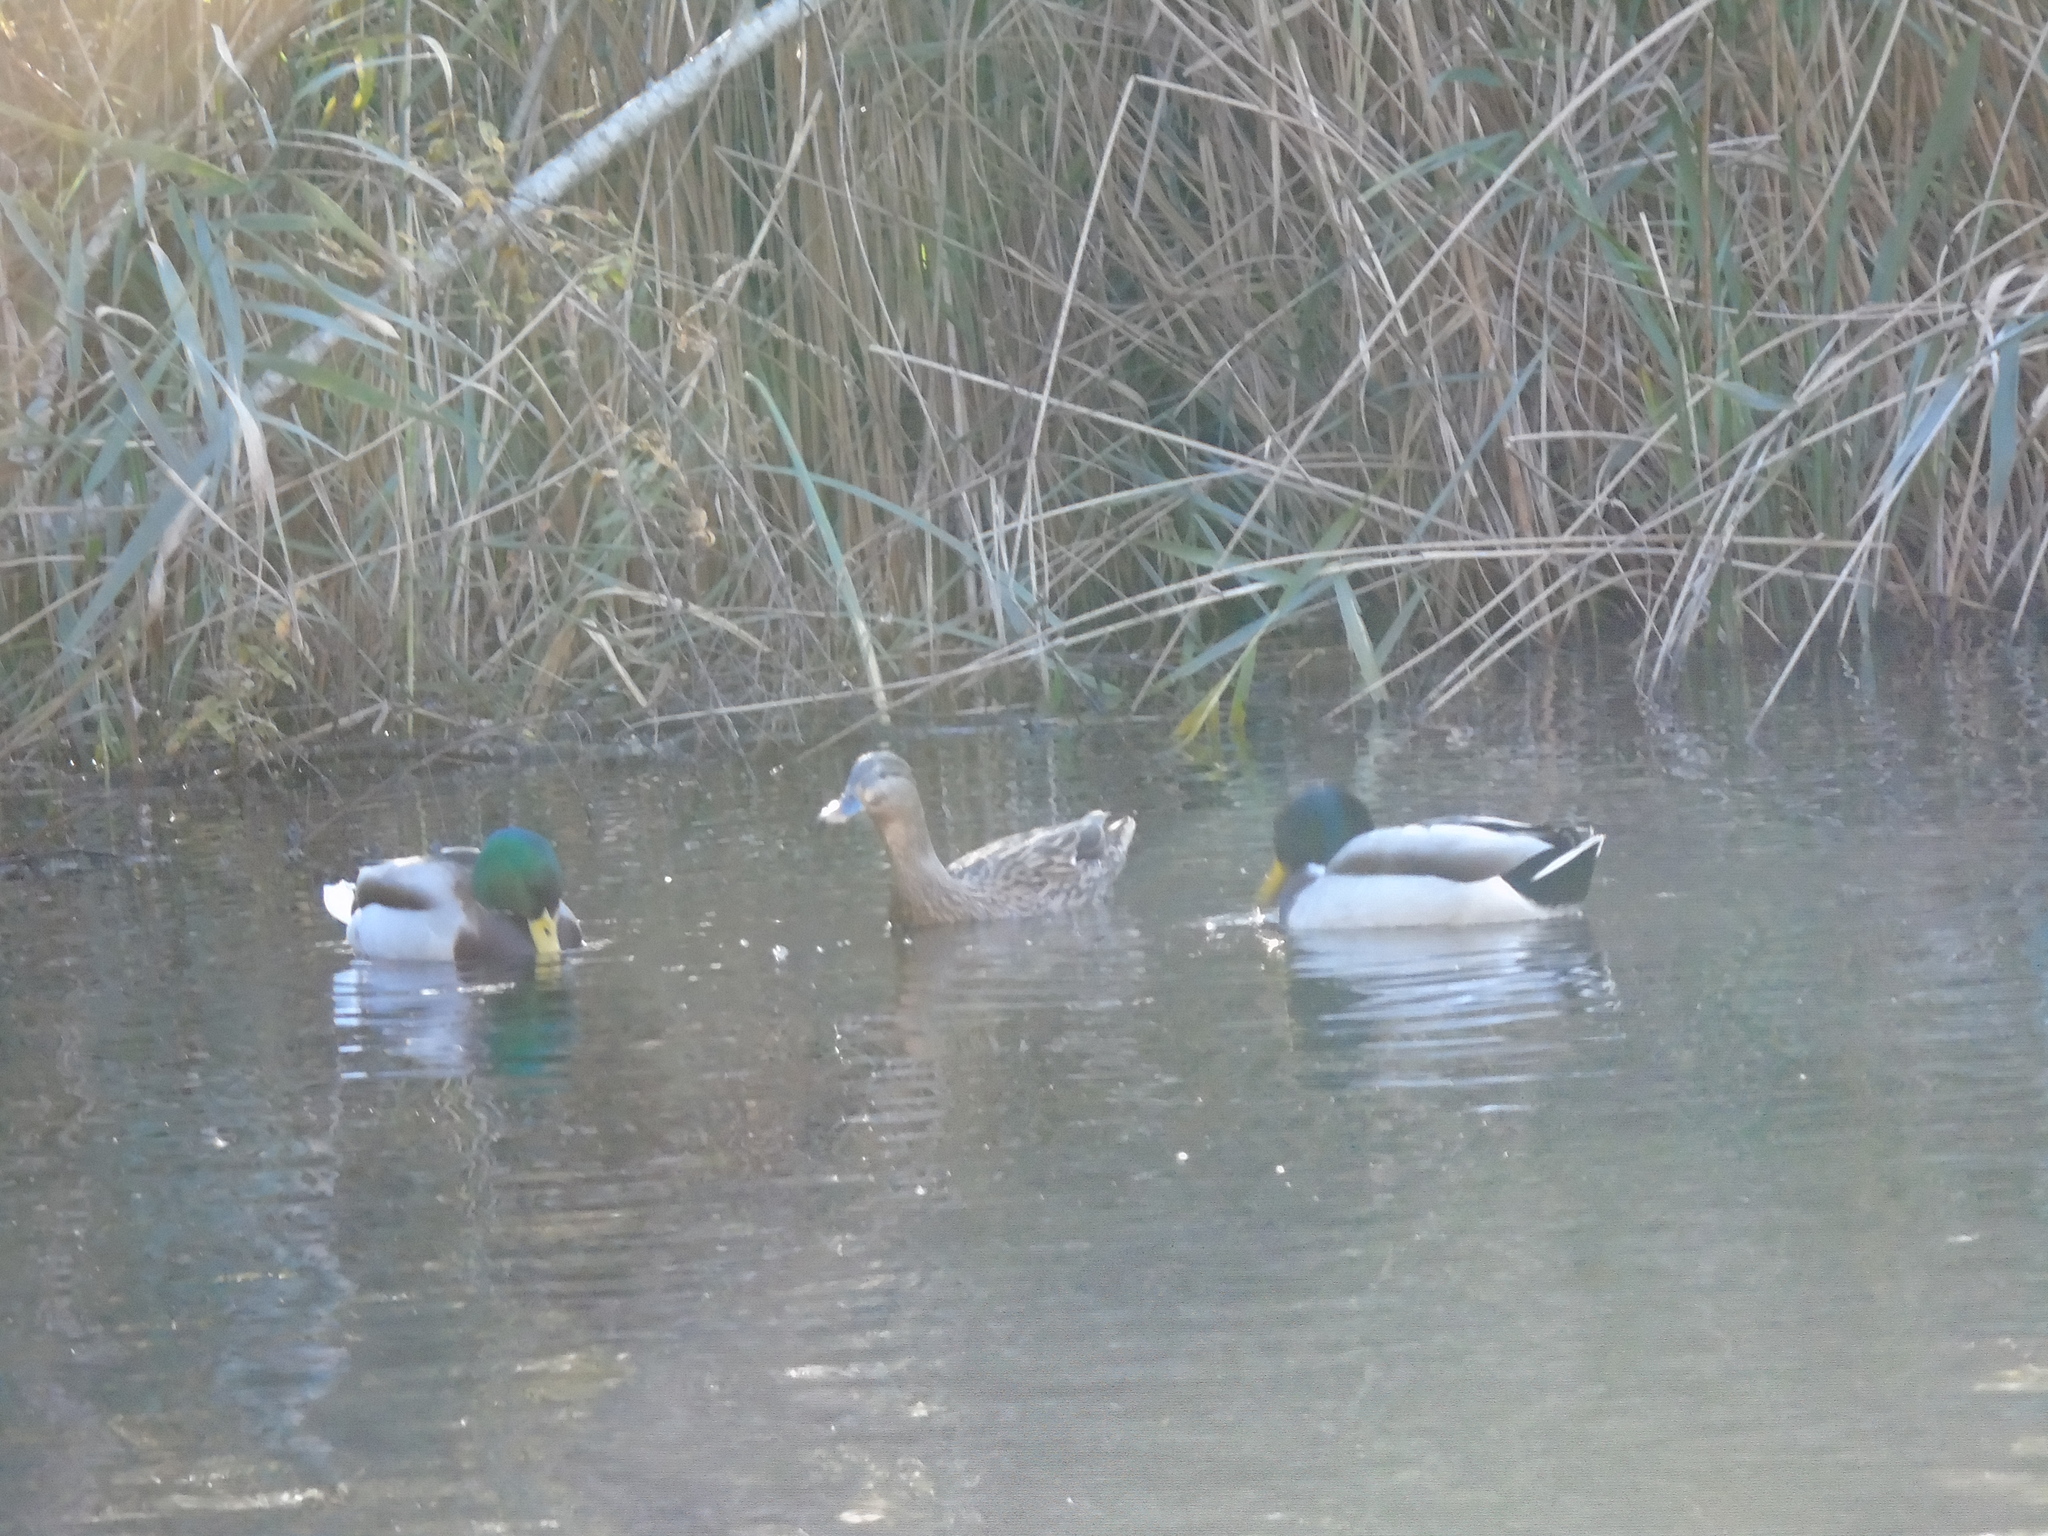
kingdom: Animalia
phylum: Chordata
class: Aves
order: Anseriformes
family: Anatidae
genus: Anas
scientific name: Anas platyrhynchos
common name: Mallard
